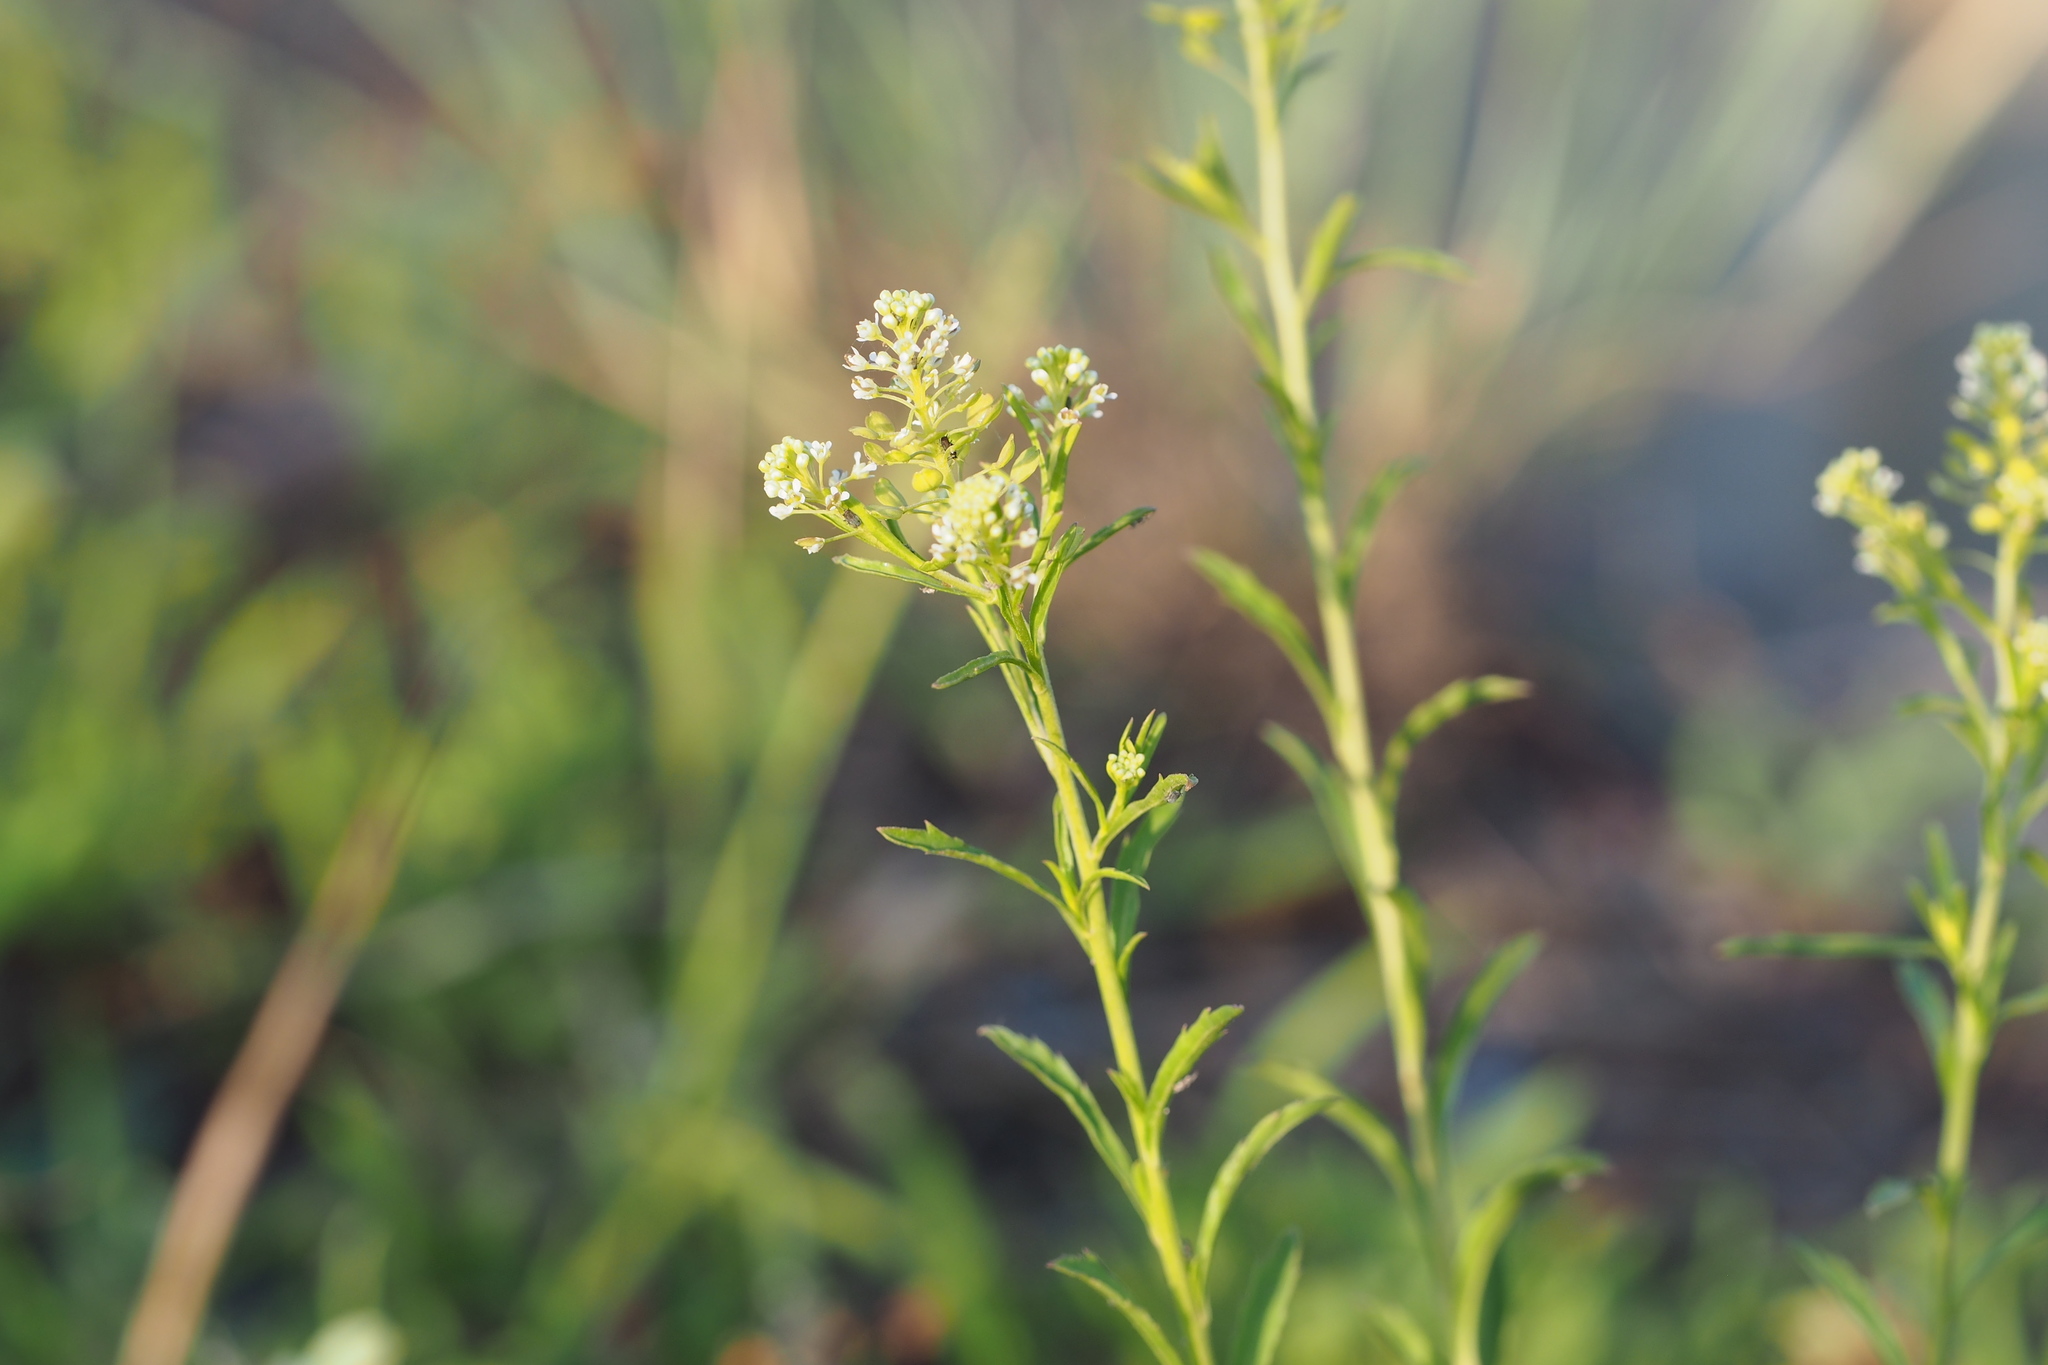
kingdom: Plantae
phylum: Tracheophyta
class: Magnoliopsida
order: Brassicales
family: Brassicaceae
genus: Lepidium
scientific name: Lepidium virginicum
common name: Least pepperwort
